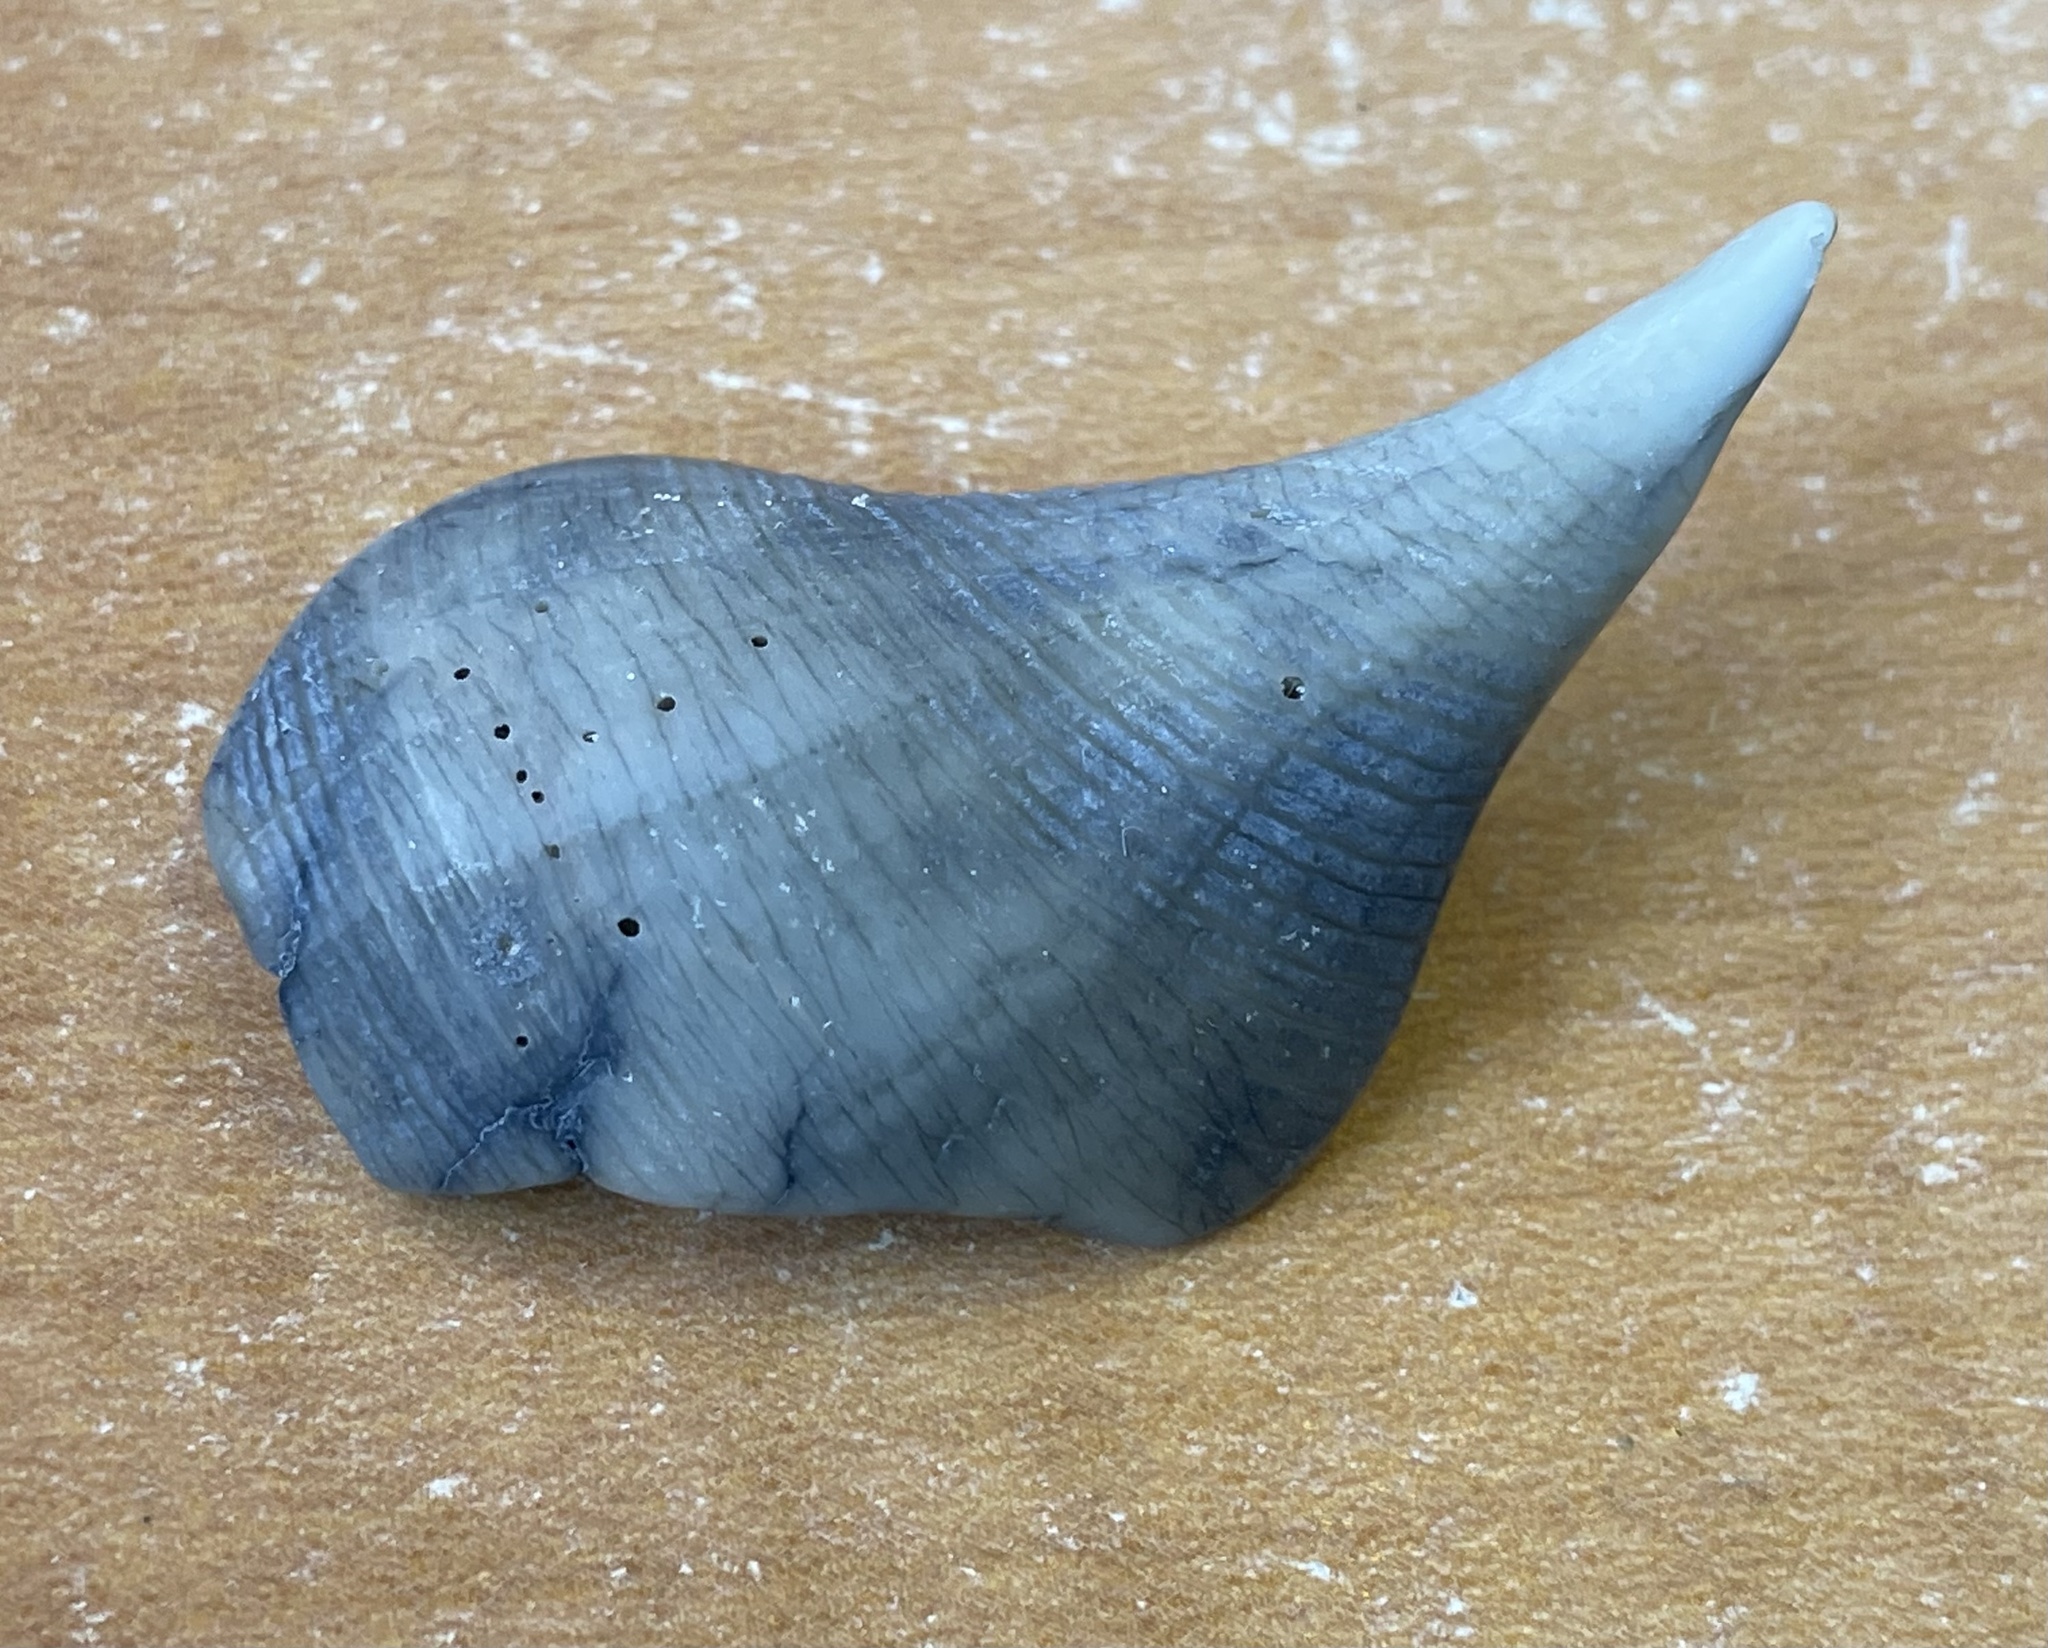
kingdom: Animalia
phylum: Mollusca
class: Gastropoda
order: Neogastropoda
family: Busyconidae
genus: Fulguropsis
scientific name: Fulguropsis spirata
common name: Pear whelk
